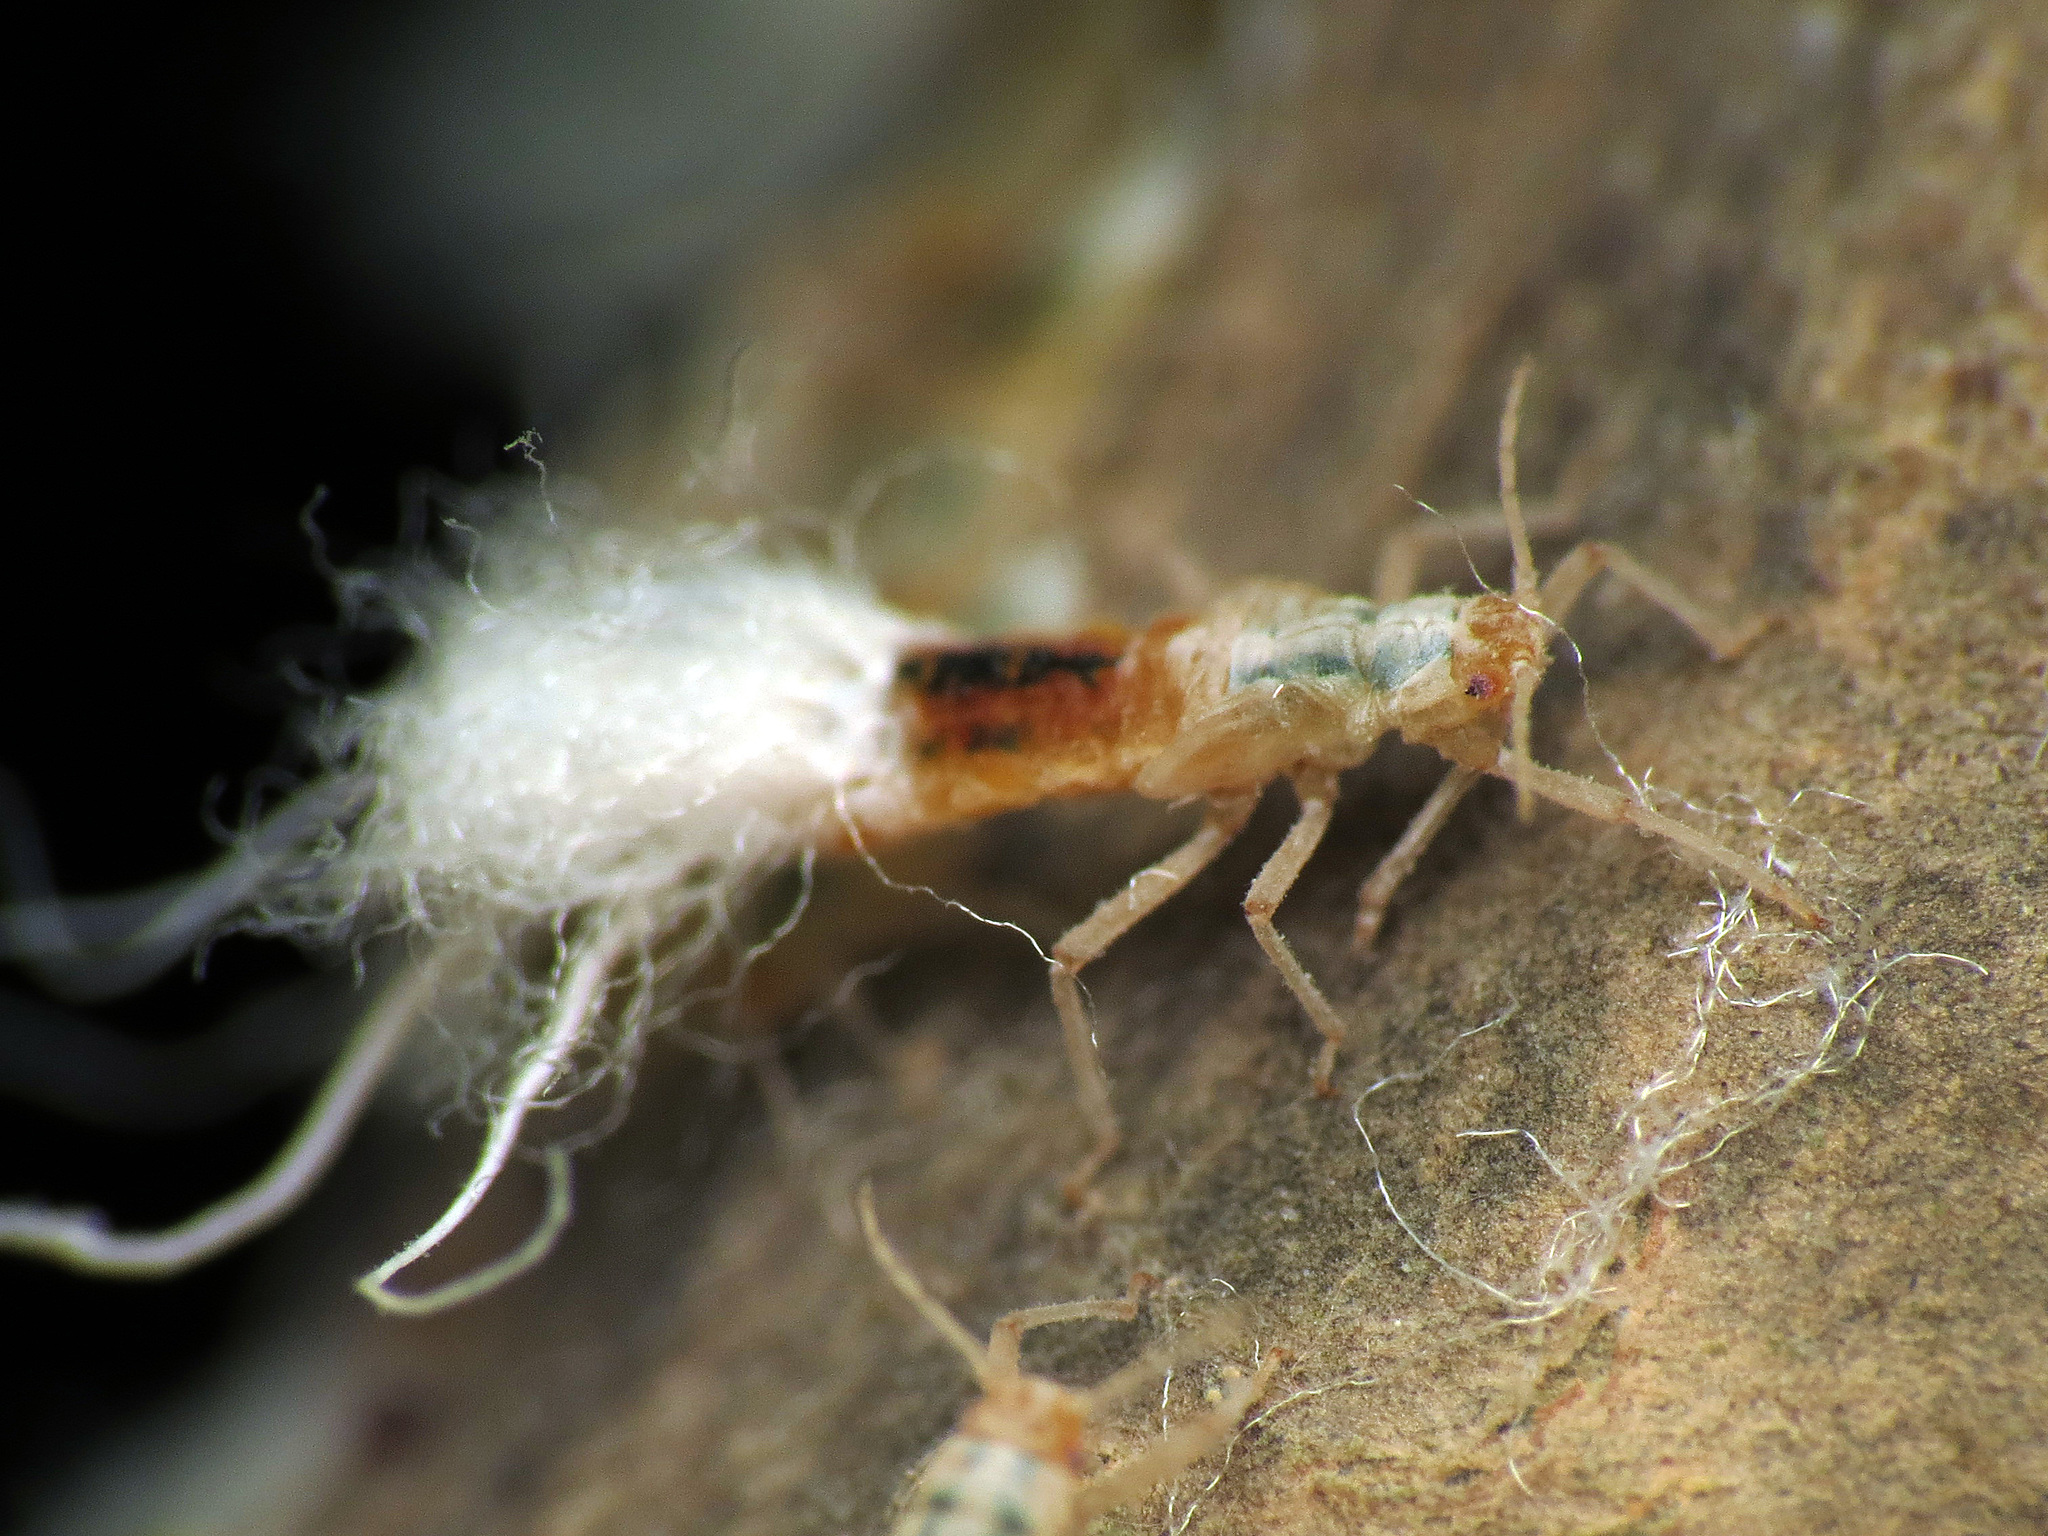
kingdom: Animalia
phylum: Arthropoda
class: Insecta
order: Hemiptera
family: Aphididae
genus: Grylloprociphilus
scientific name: Grylloprociphilus imbricator
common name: Beech blight aphid
